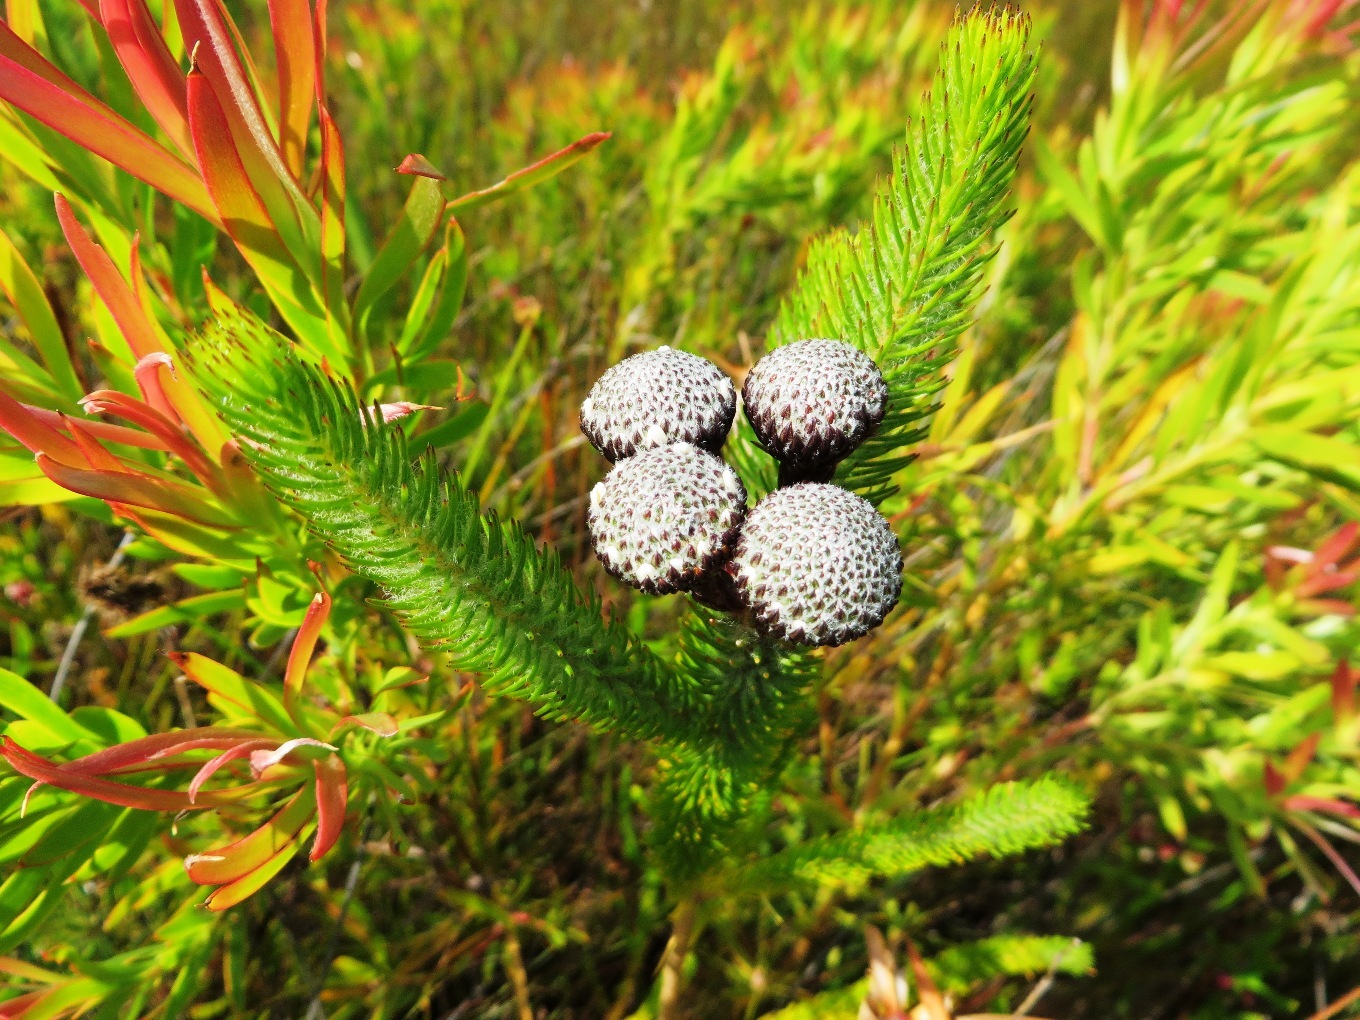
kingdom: Plantae
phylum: Tracheophyta
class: Magnoliopsida
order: Bruniales
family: Bruniaceae
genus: Berzelia
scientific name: Berzelia albiflora
